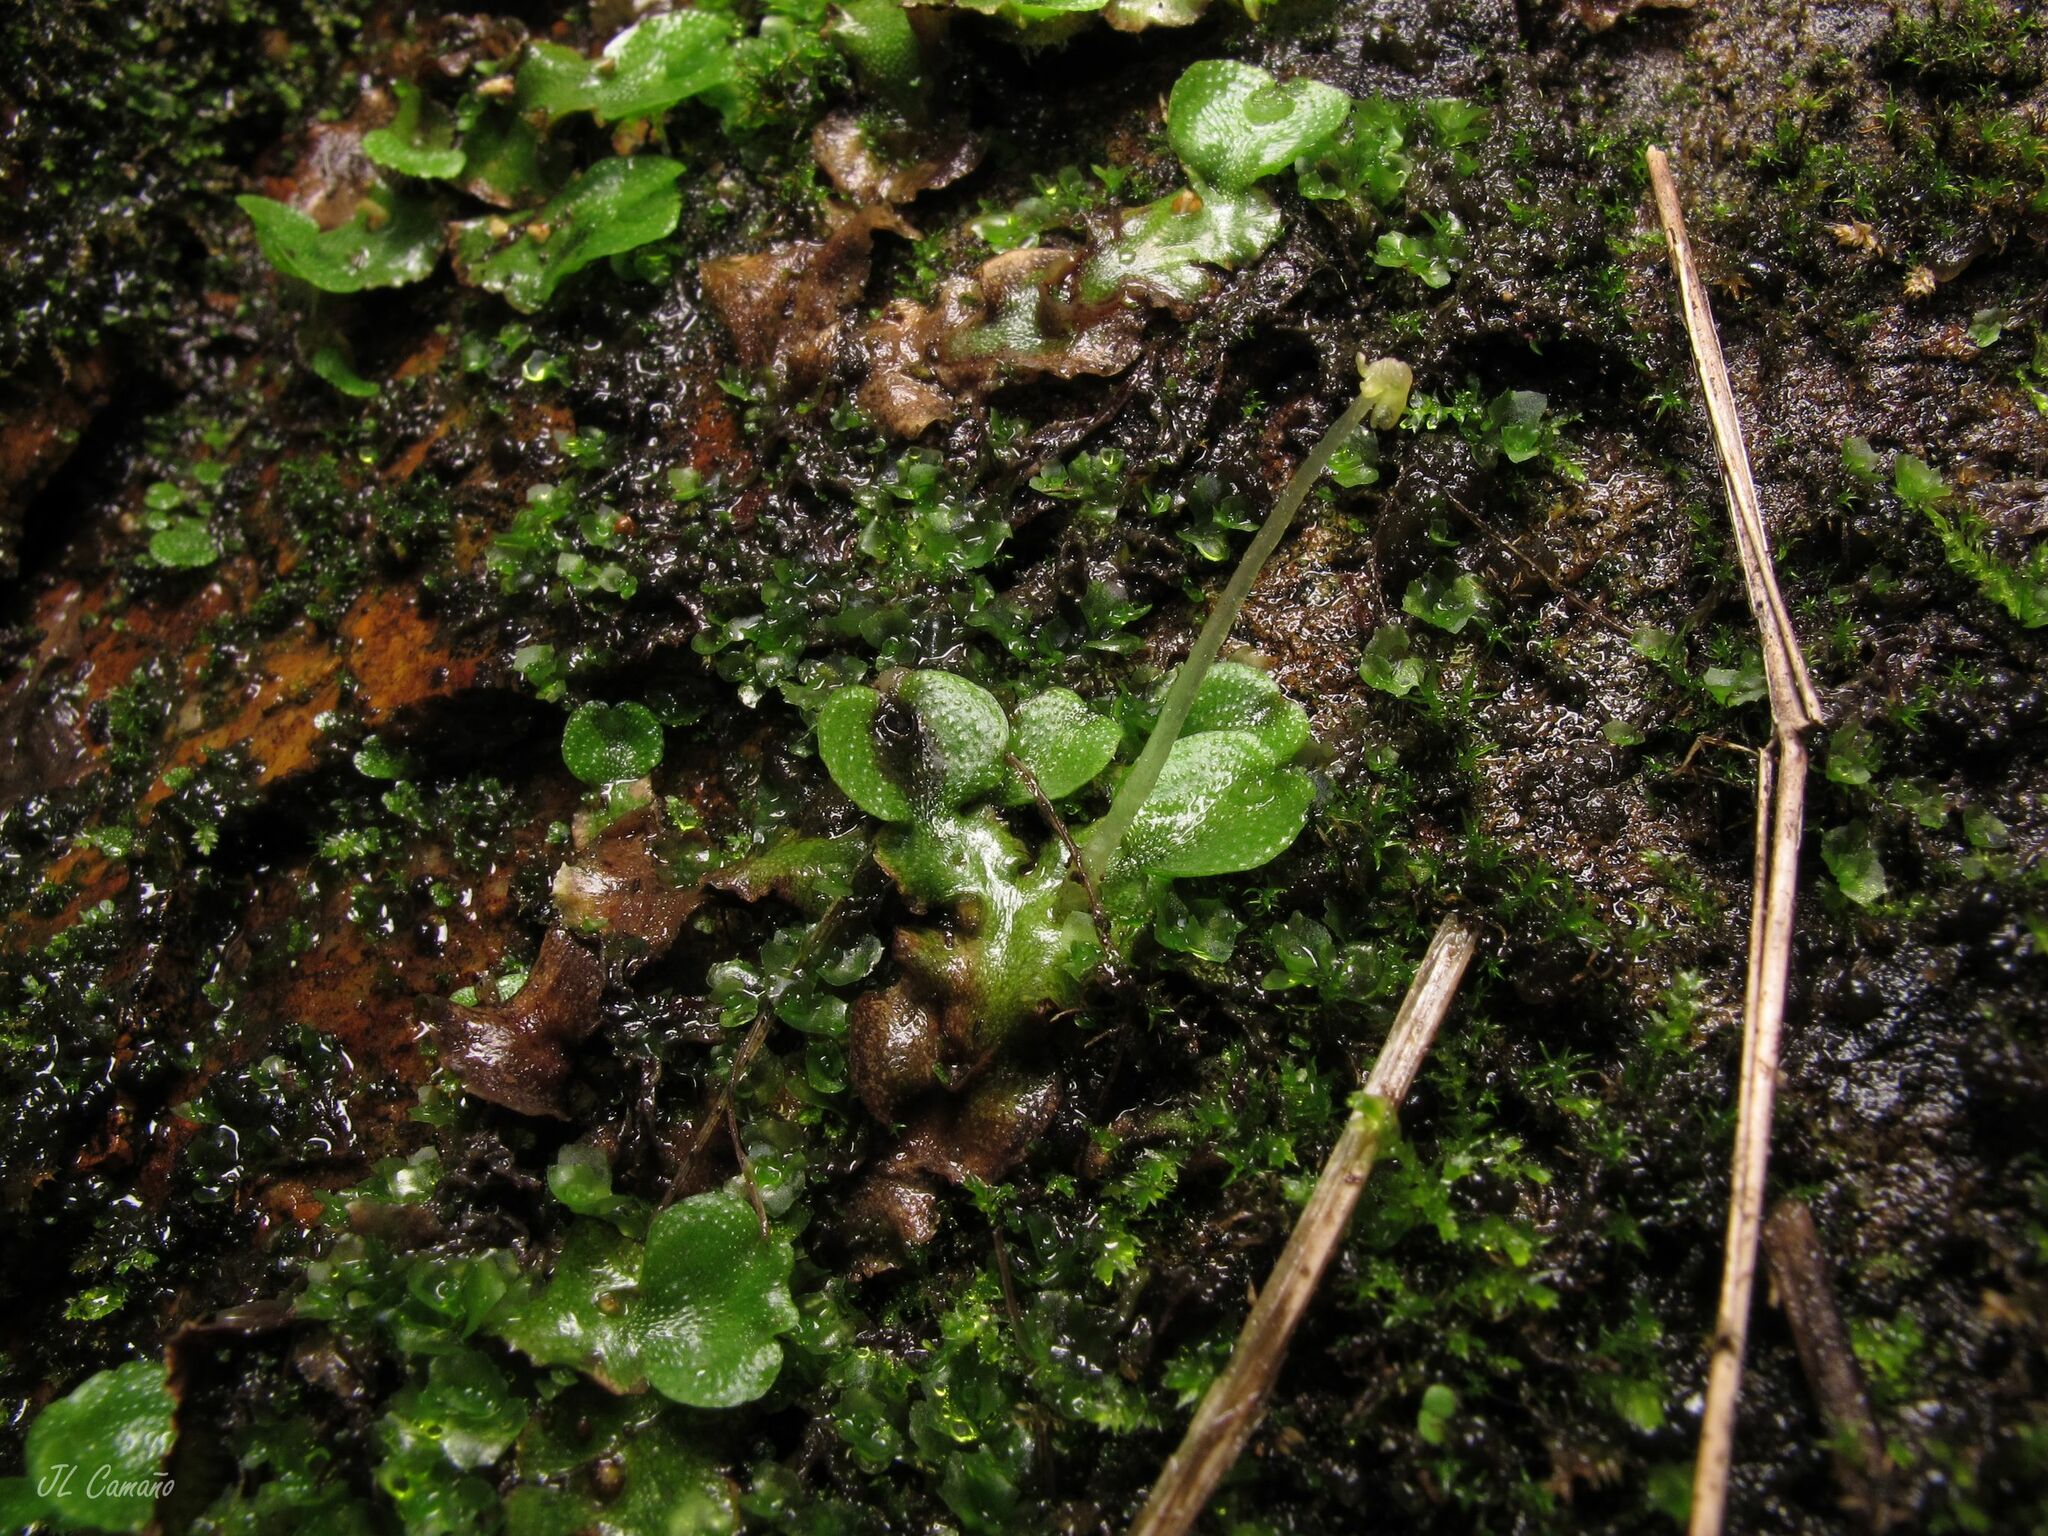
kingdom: Plantae
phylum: Marchantiophyta
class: Marchantiopsida
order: Lunulariales
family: Lunulariaceae
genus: Lunularia
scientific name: Lunularia cruciata
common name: Crescent-cup liverwort
